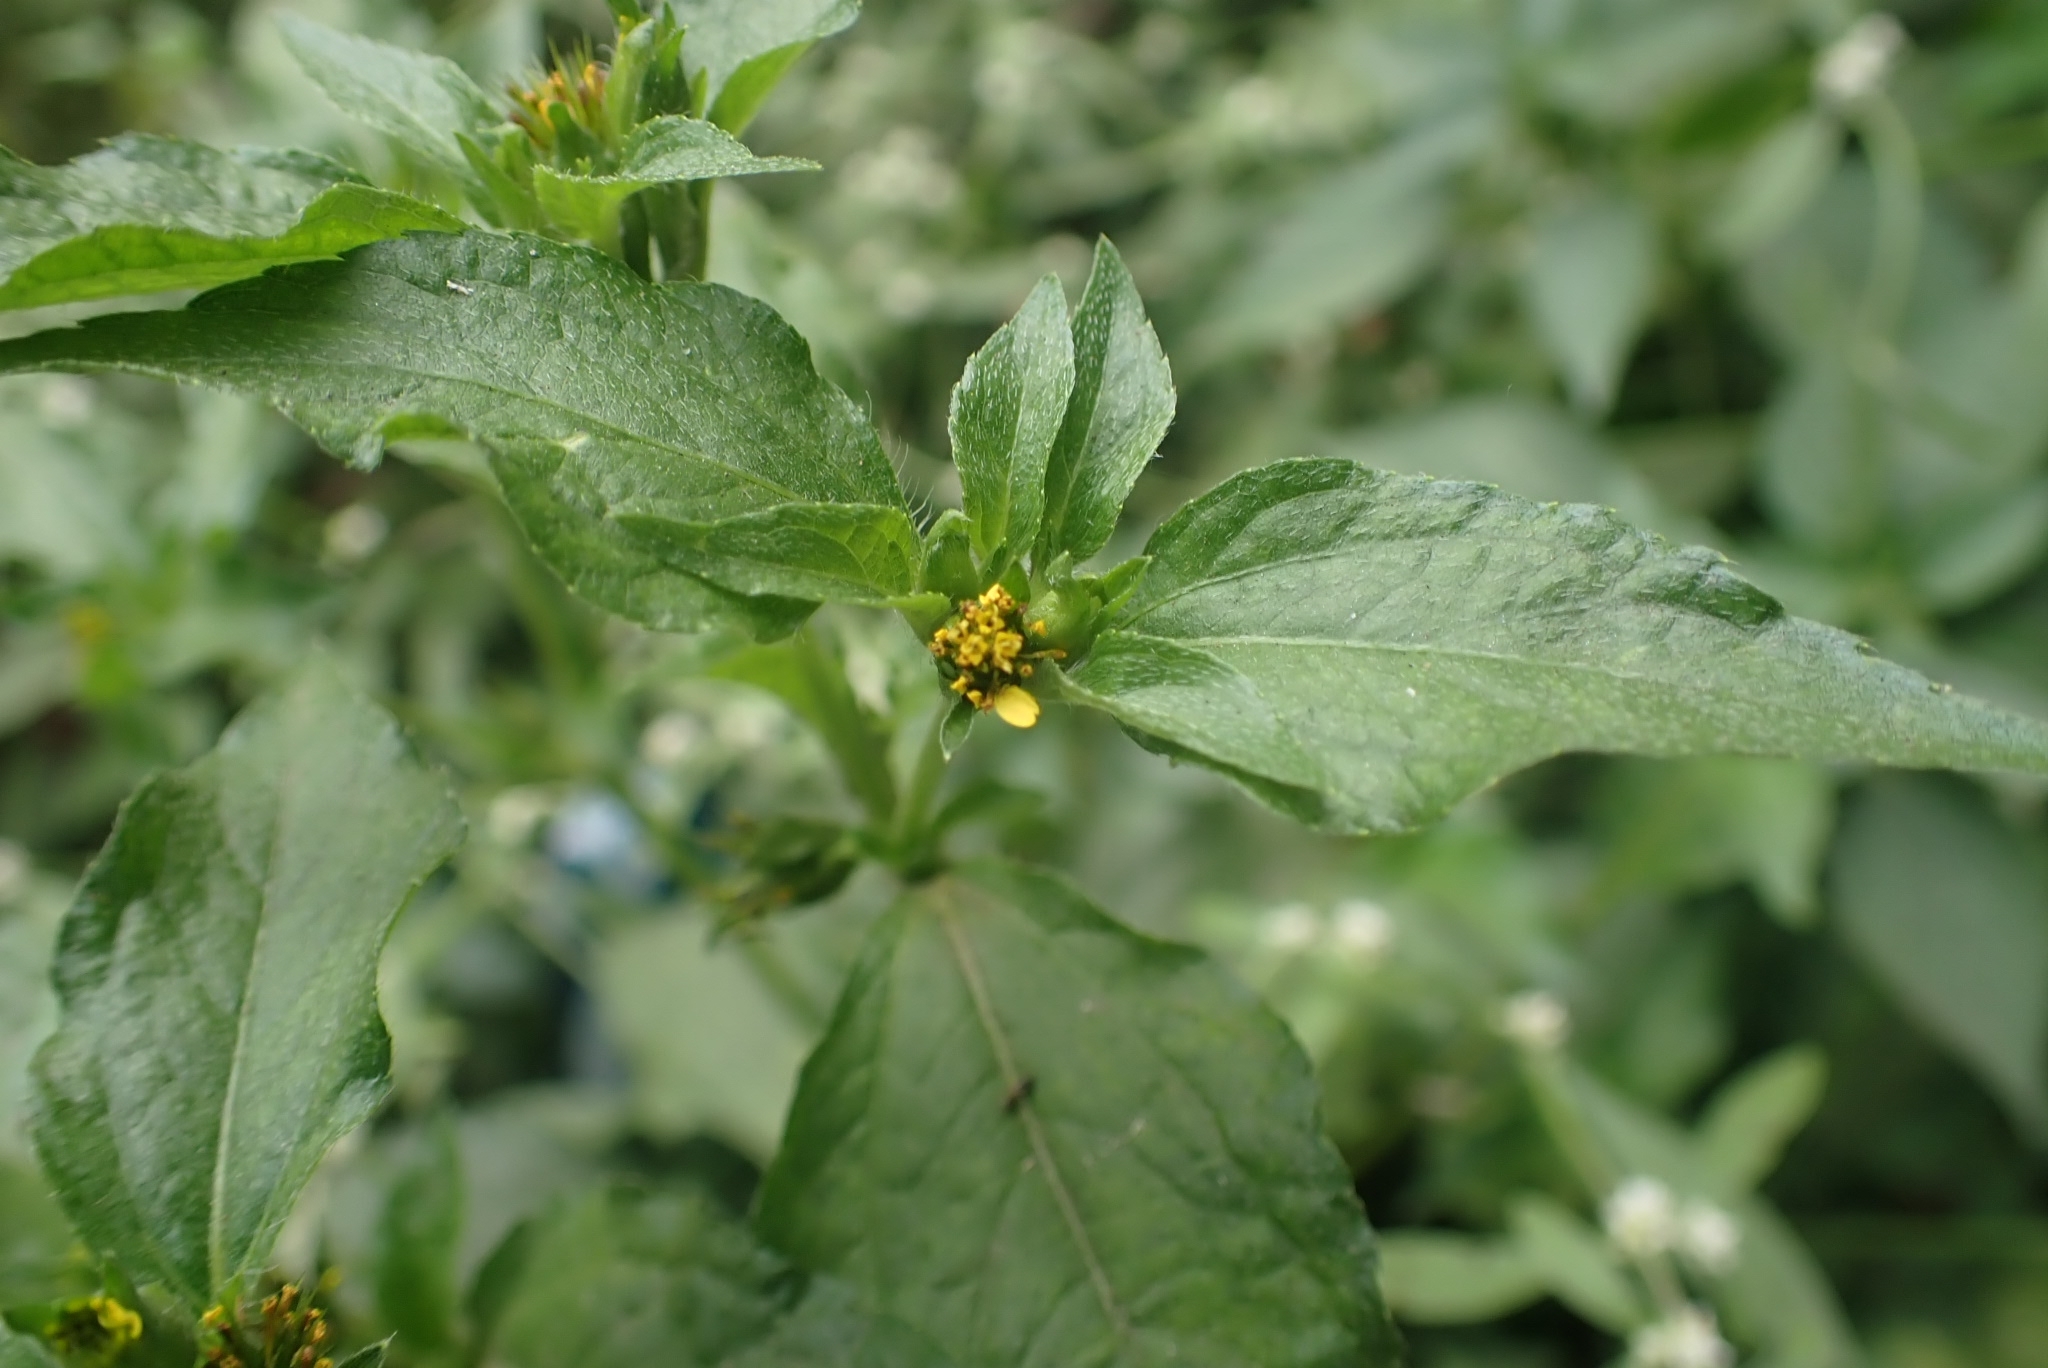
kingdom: Plantae
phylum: Tracheophyta
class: Magnoliopsida
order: Asterales
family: Asteraceae
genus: Calyptocarpus
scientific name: Calyptocarpus vialis
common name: Straggler daisy
